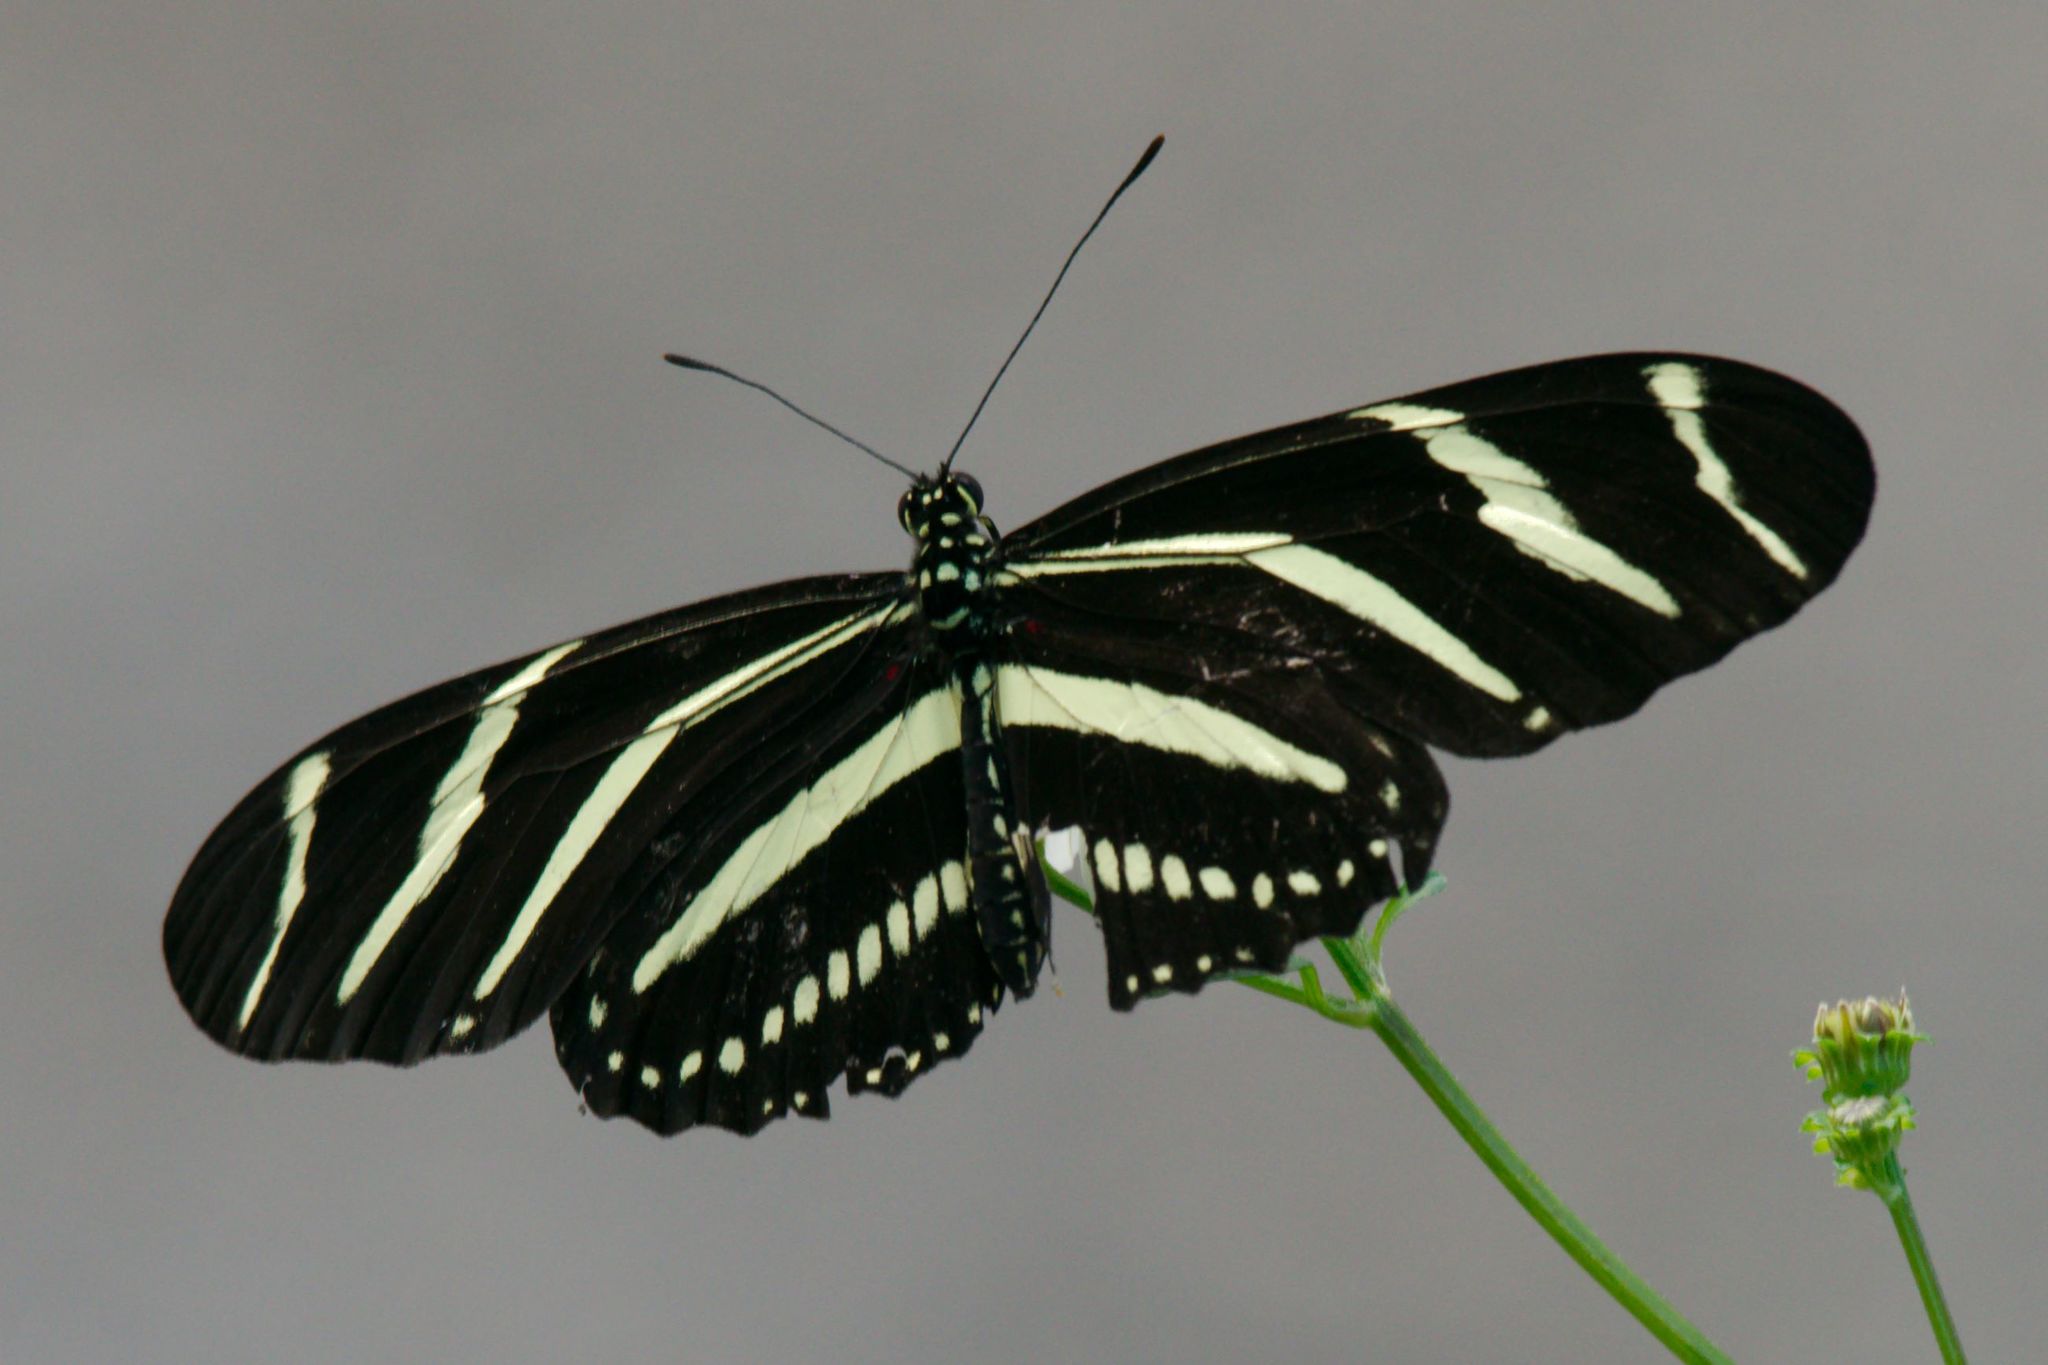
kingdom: Animalia
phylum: Arthropoda
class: Insecta
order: Lepidoptera
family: Nymphalidae
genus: Heliconius
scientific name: Heliconius charithonia
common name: Zebra long wing
